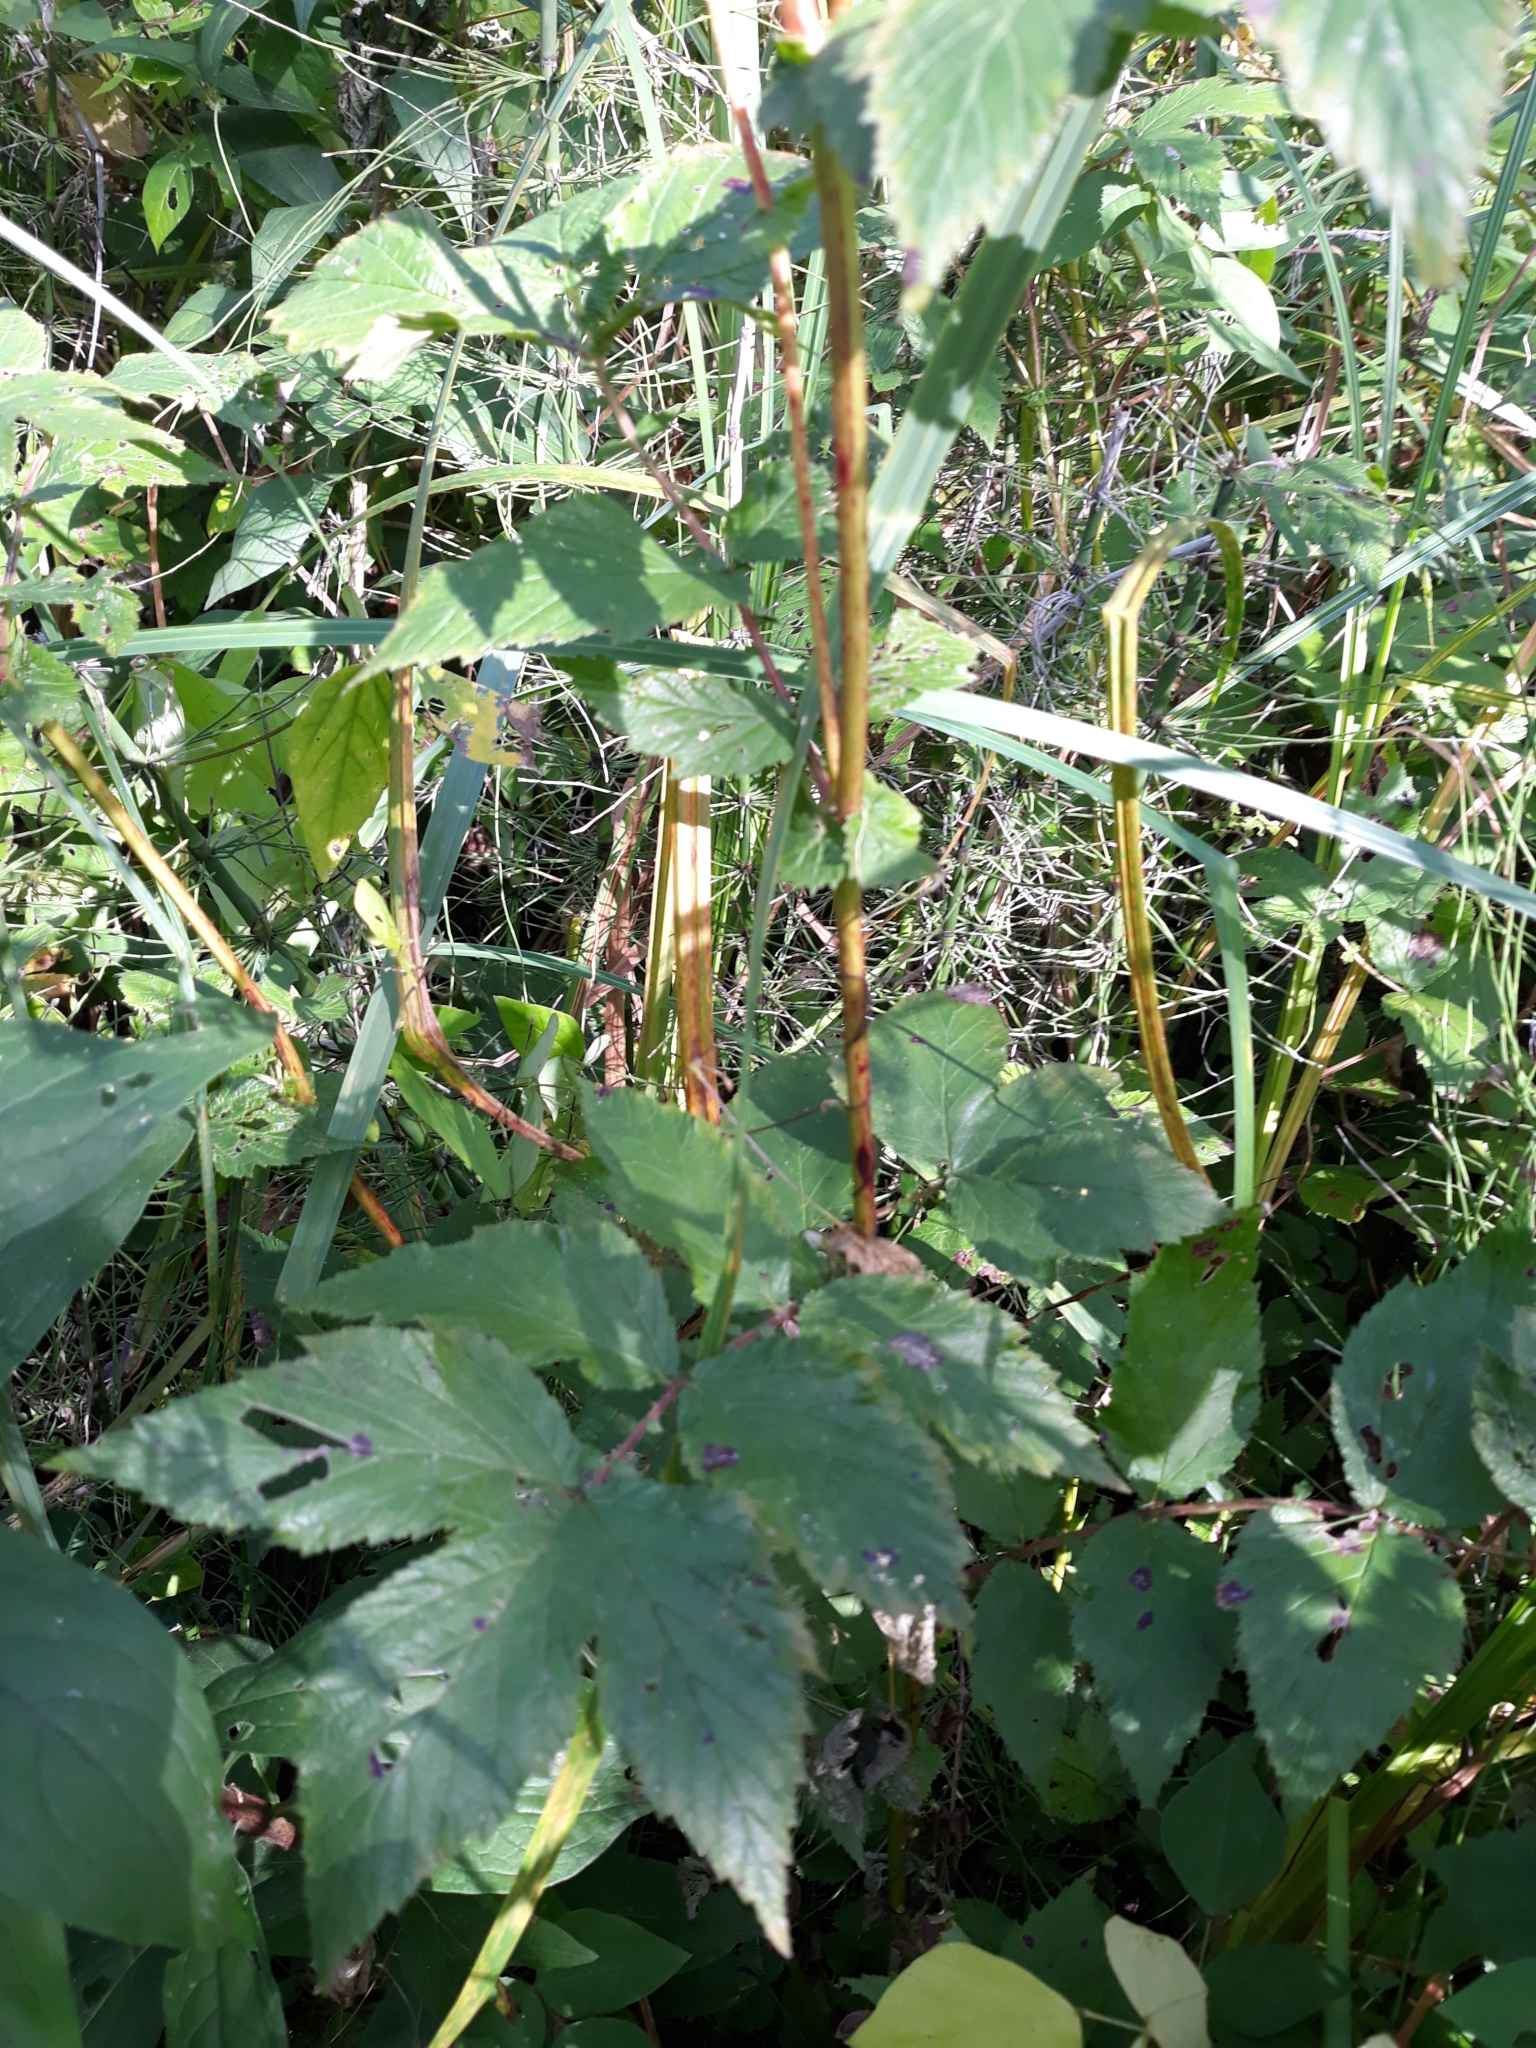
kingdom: Plantae
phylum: Tracheophyta
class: Magnoliopsida
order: Rosales
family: Rosaceae
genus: Filipendula
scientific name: Filipendula ulmaria
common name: Meadowsweet
